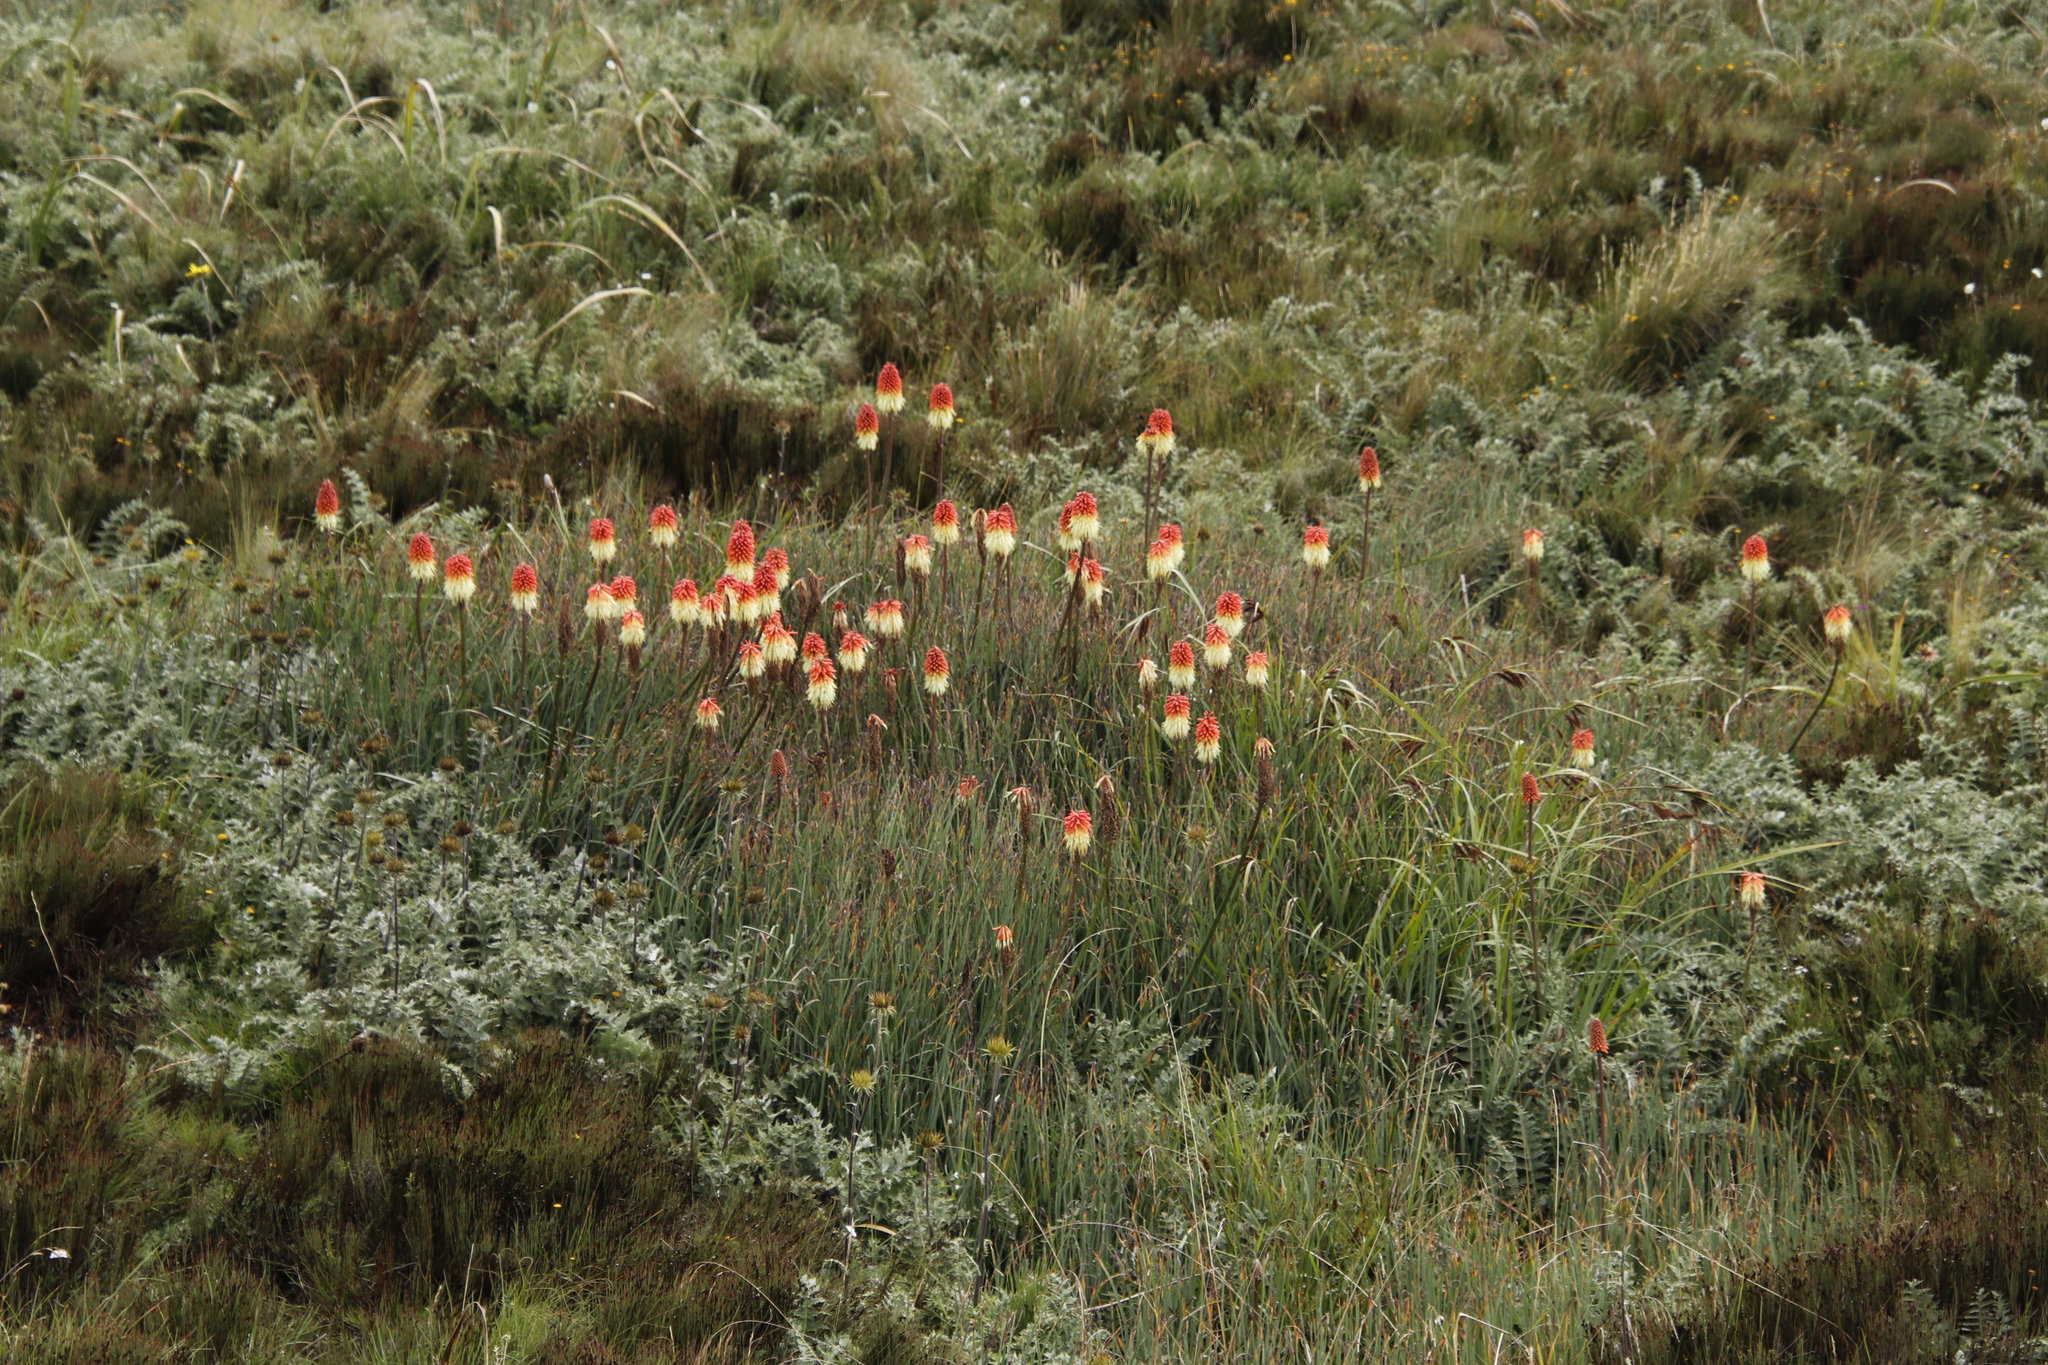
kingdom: Plantae
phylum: Tracheophyta
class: Liliopsida
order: Asparagales
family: Asphodelaceae
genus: Kniphofia
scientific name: Kniphofia caulescens
